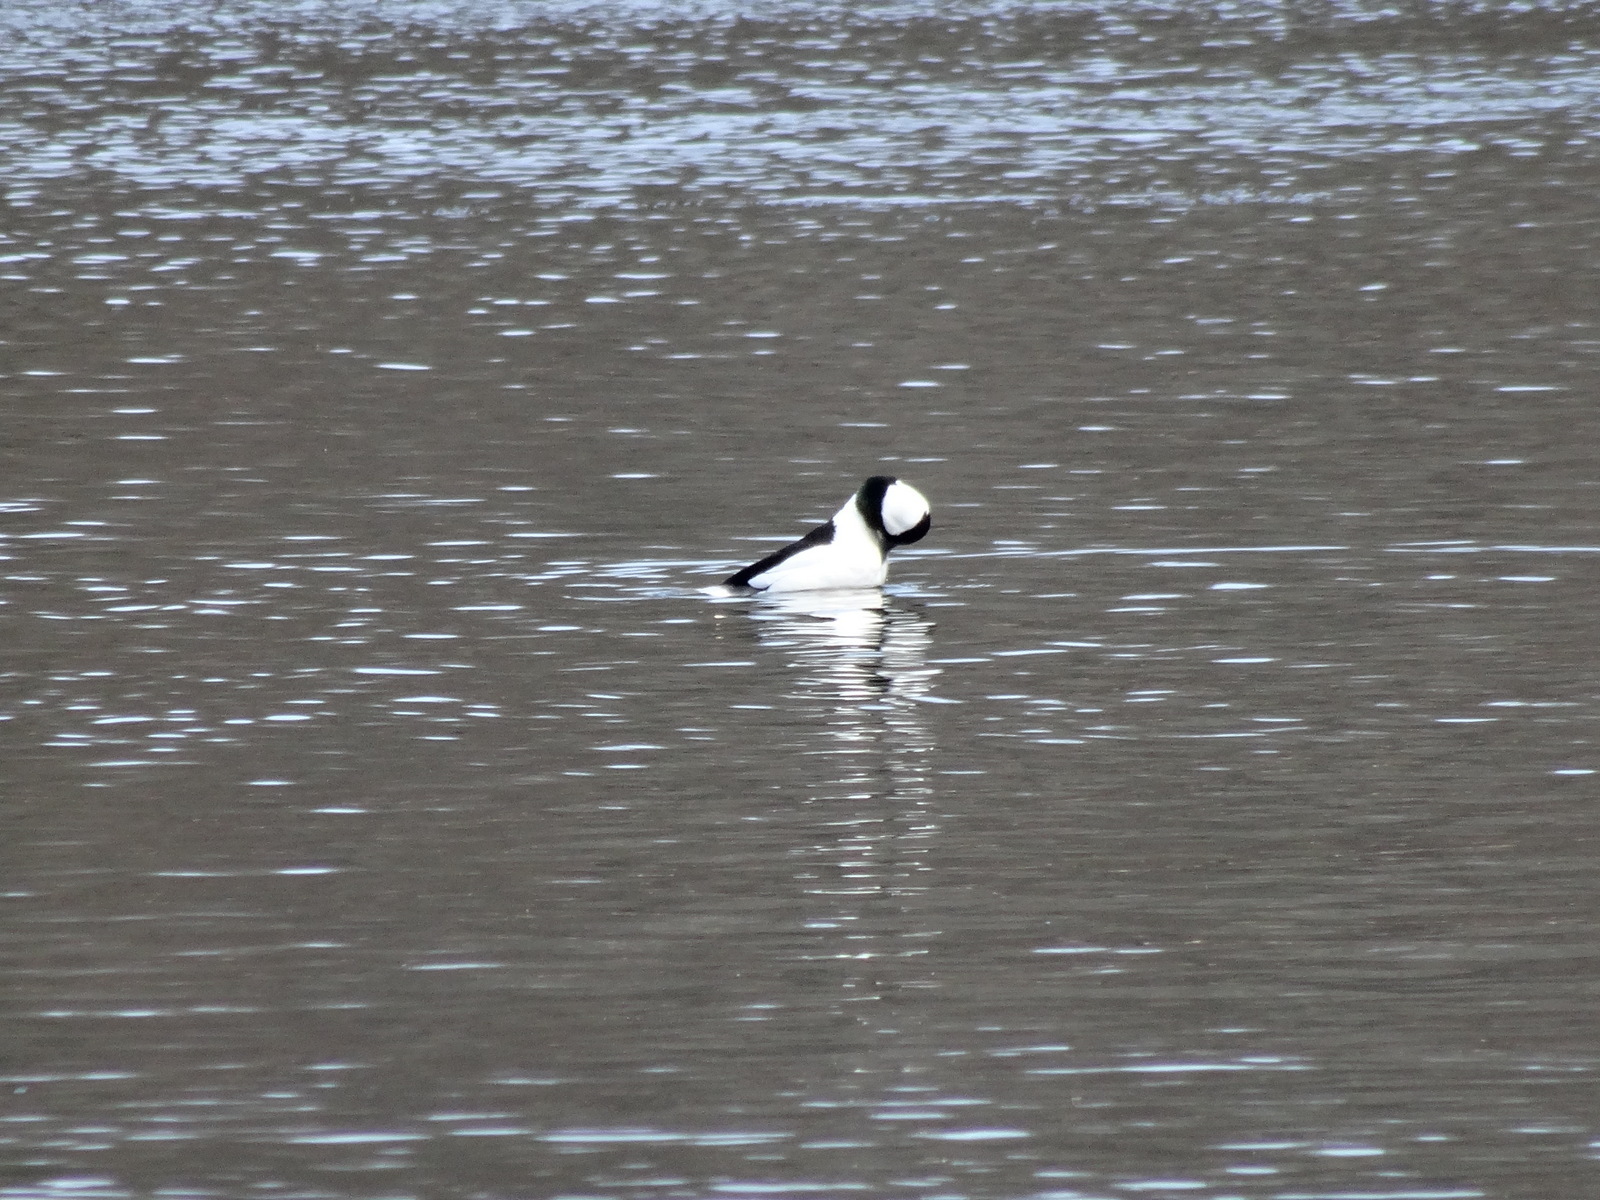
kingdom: Animalia
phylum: Chordata
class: Aves
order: Anseriformes
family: Anatidae
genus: Bucephala
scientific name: Bucephala albeola
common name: Bufflehead
